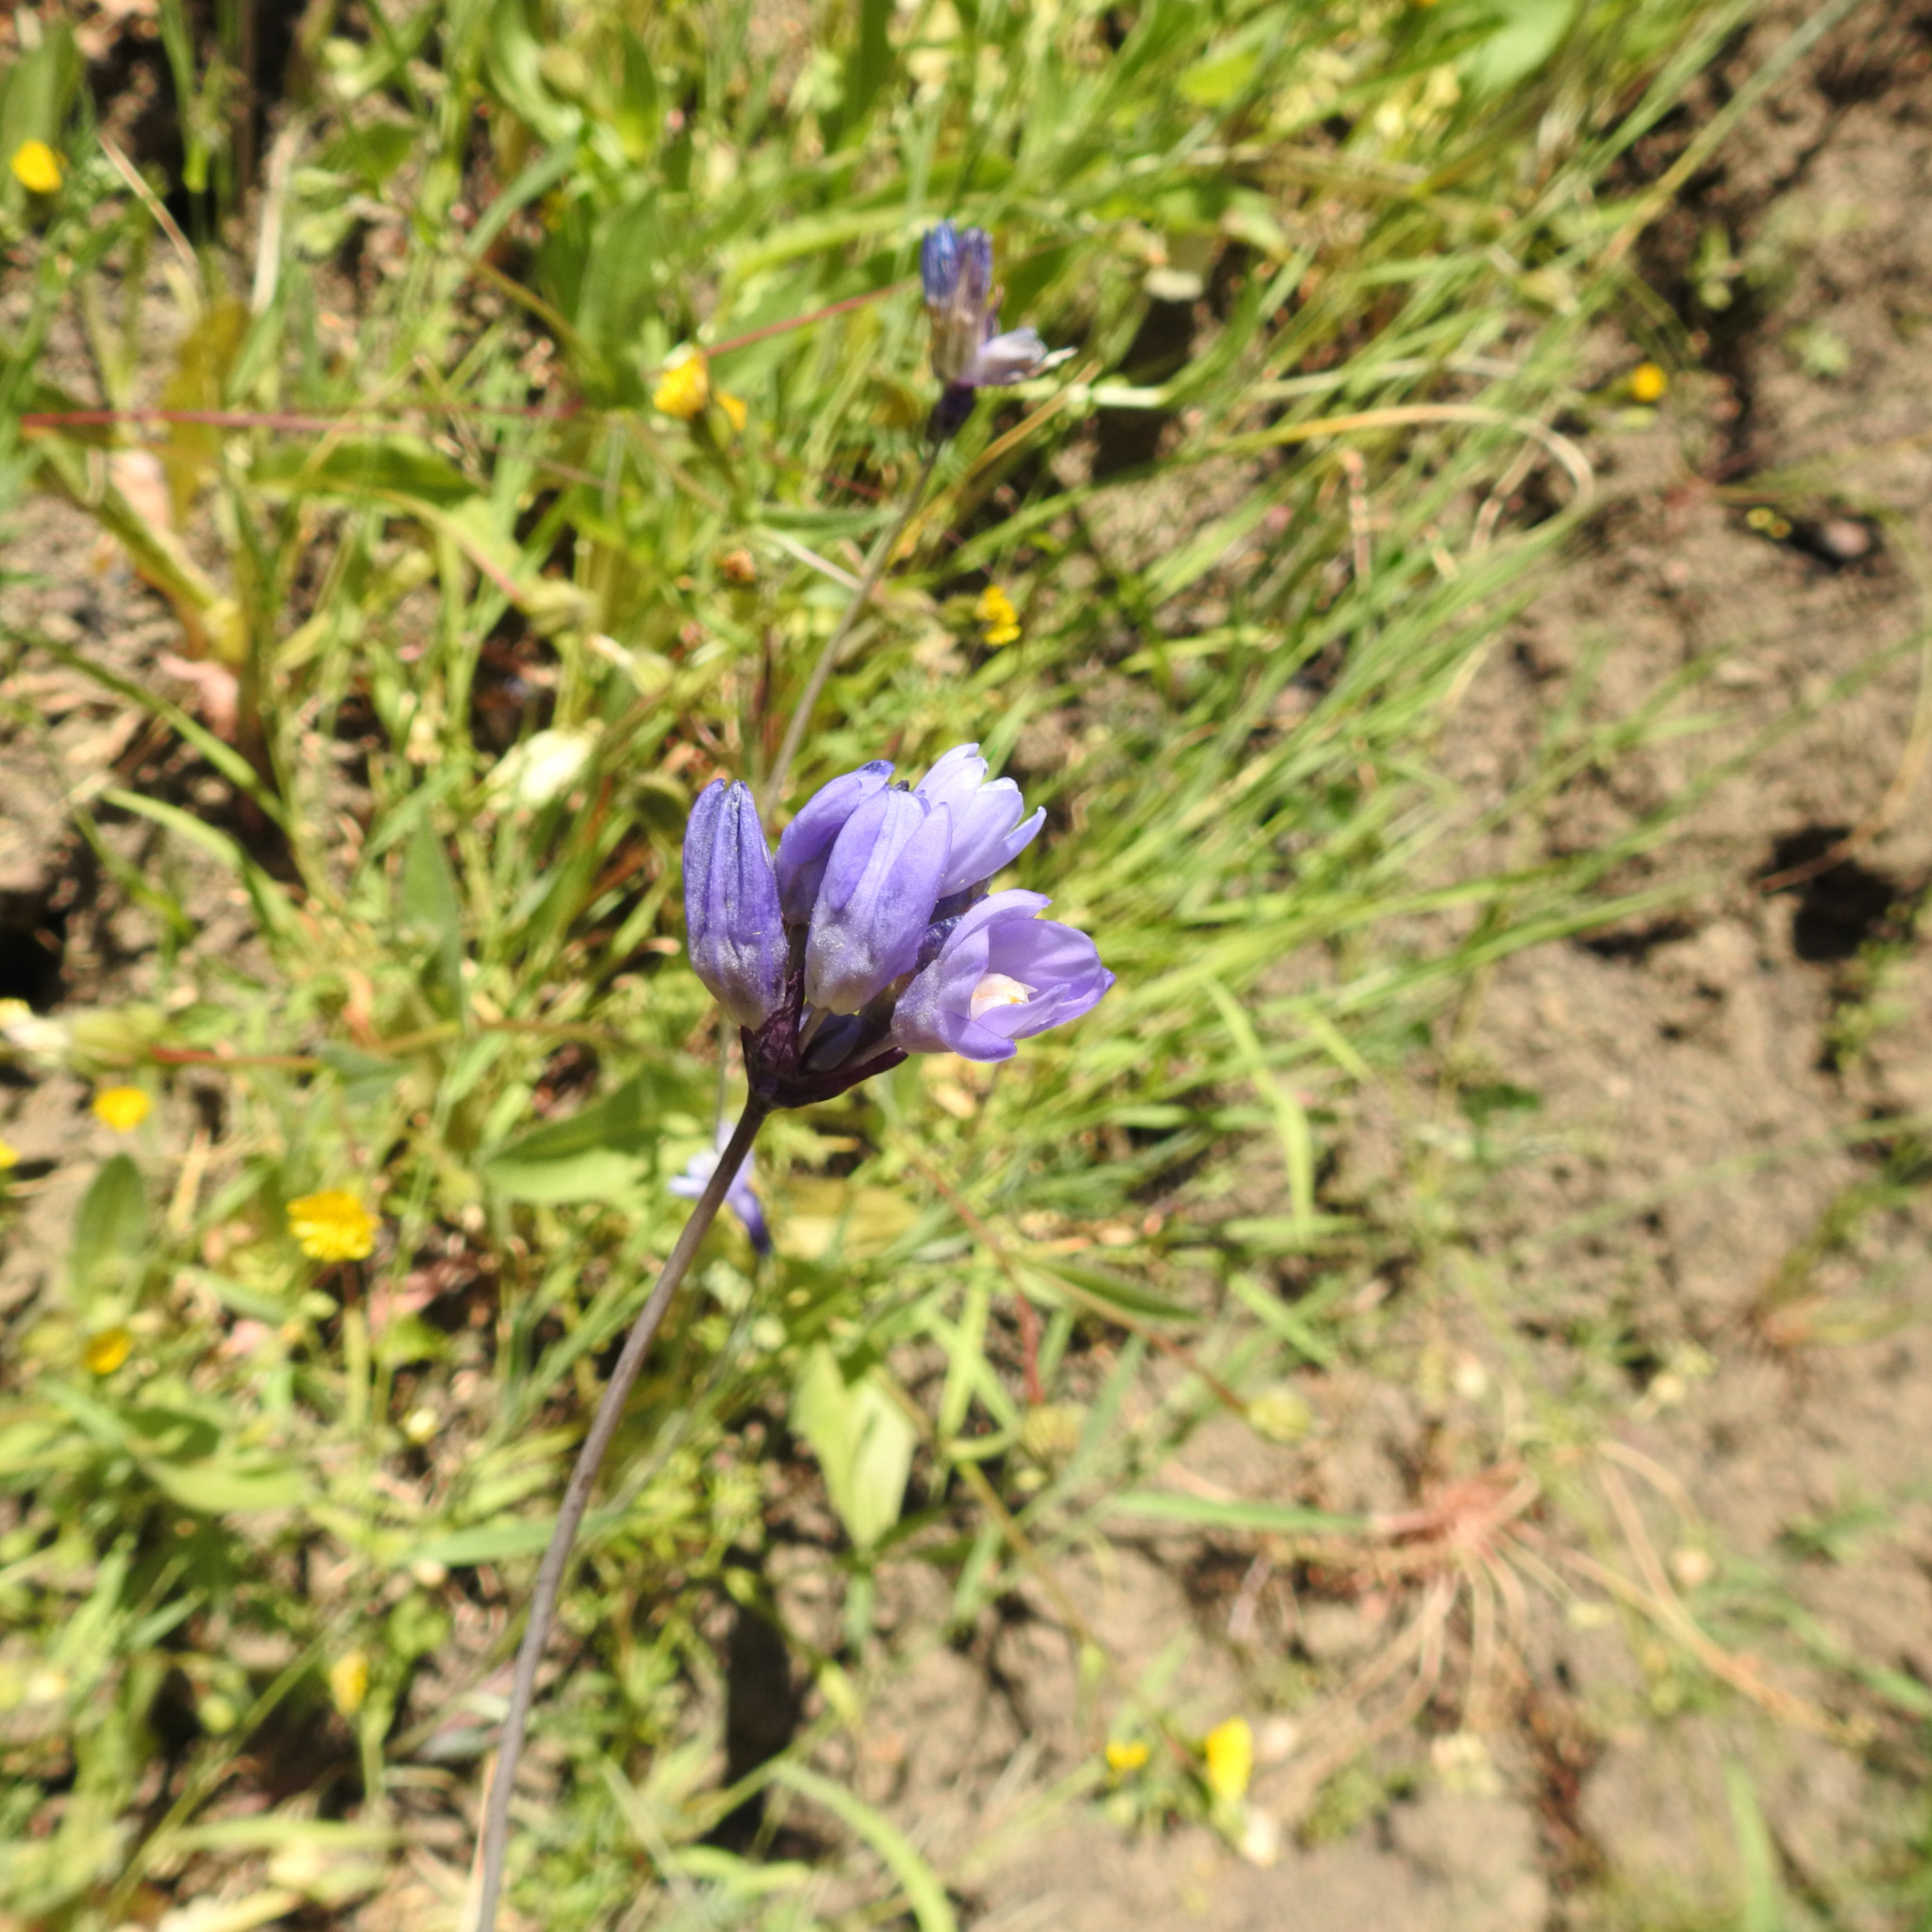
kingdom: Plantae
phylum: Tracheophyta
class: Liliopsida
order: Asparagales
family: Asparagaceae
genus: Dipterostemon
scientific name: Dipterostemon capitatus
